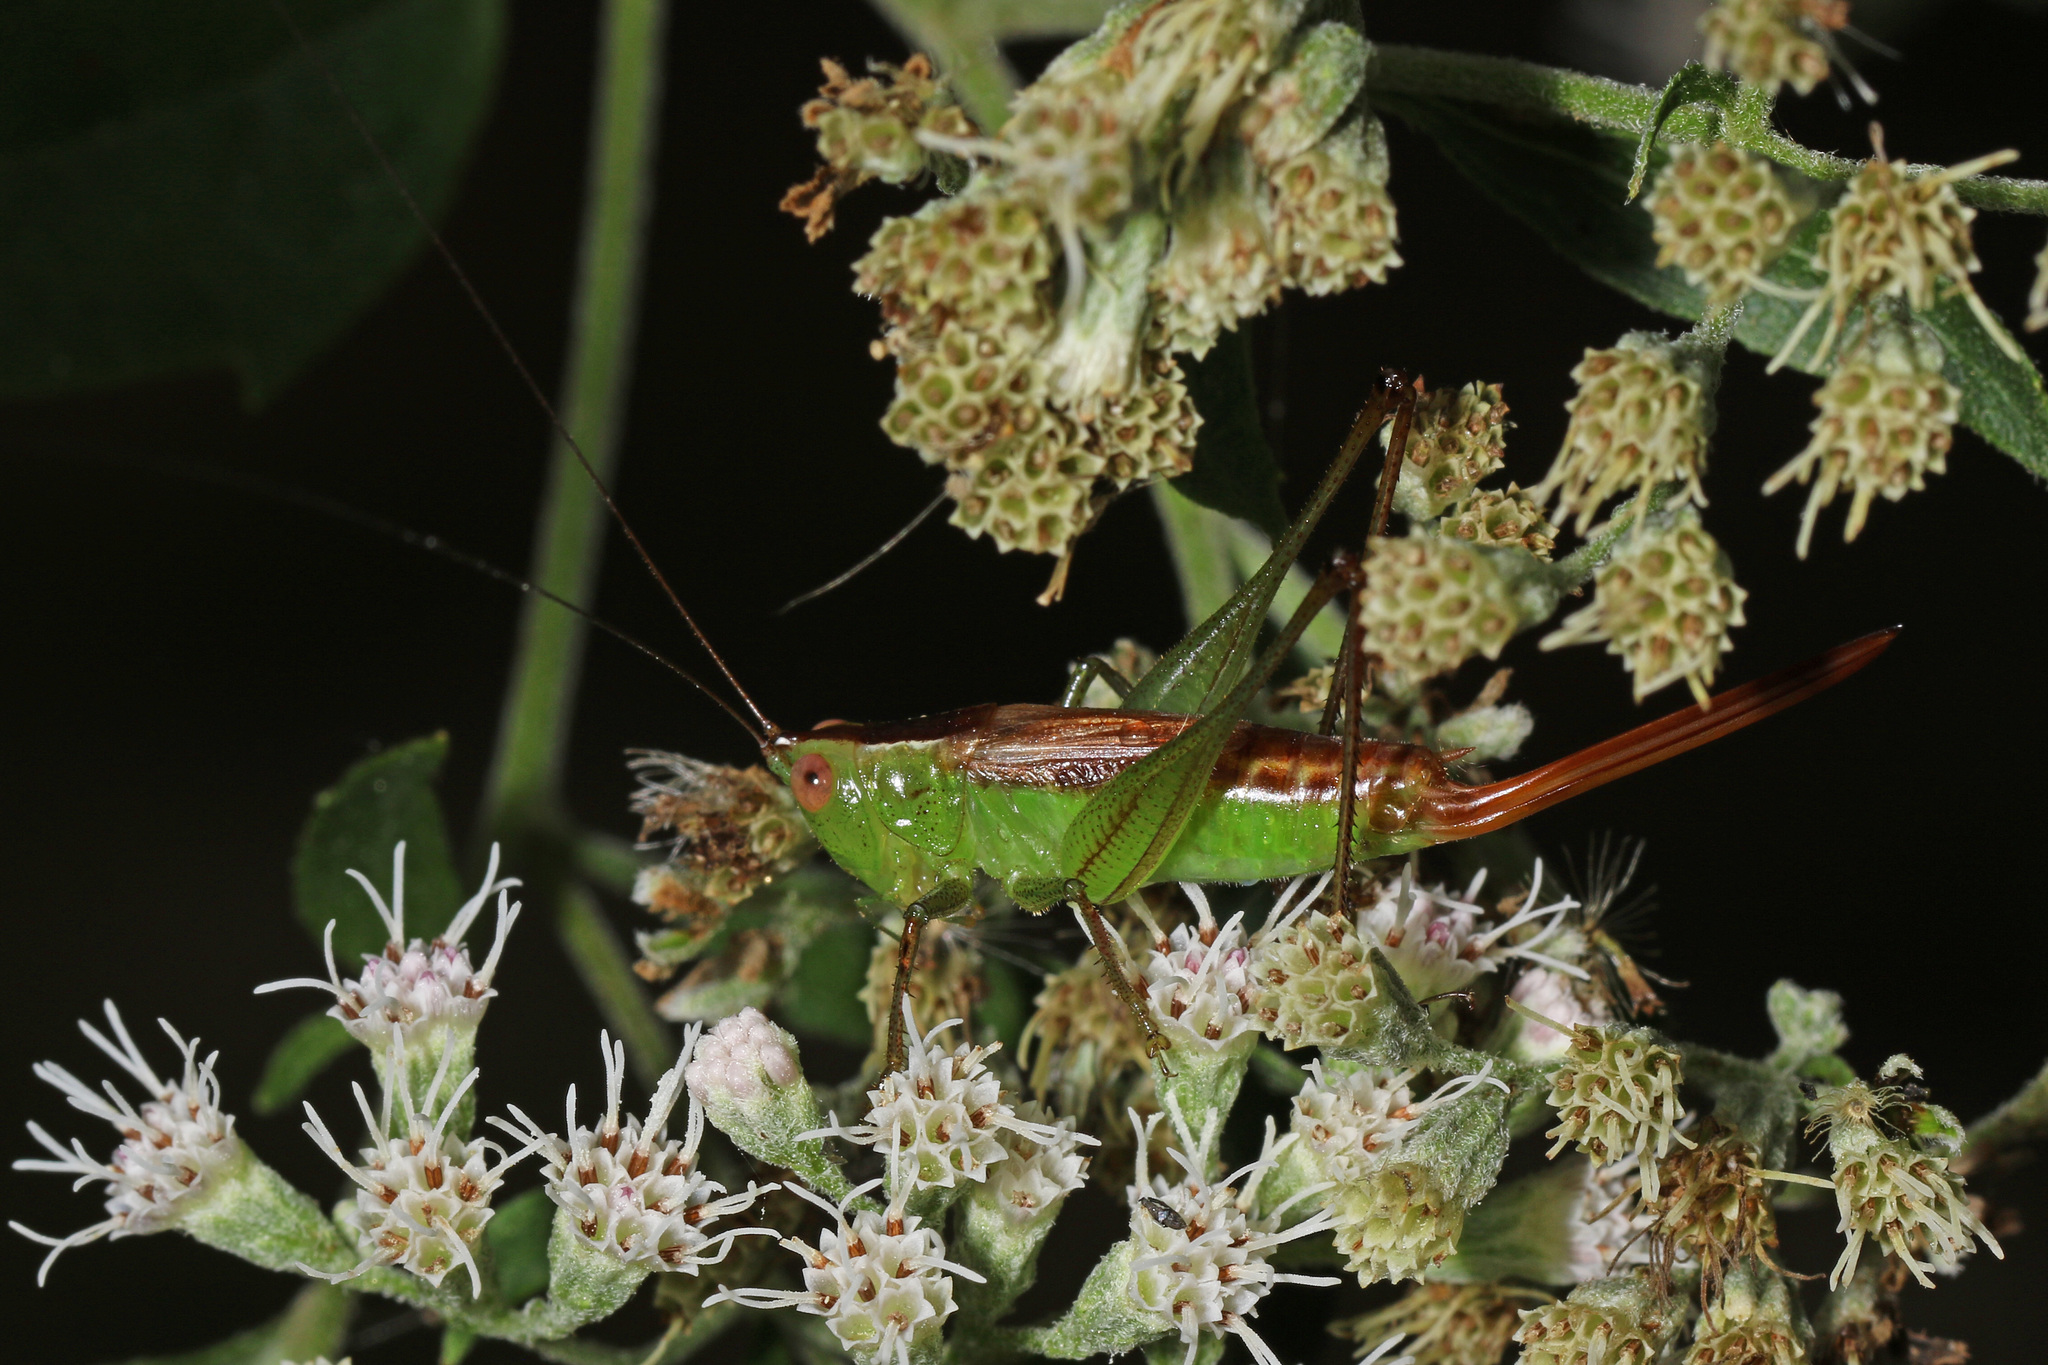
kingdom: Animalia
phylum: Arthropoda
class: Insecta
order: Orthoptera
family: Tettigoniidae
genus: Conocephalus
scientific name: Conocephalus brevipennis
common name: Short-winged meadow katydid
